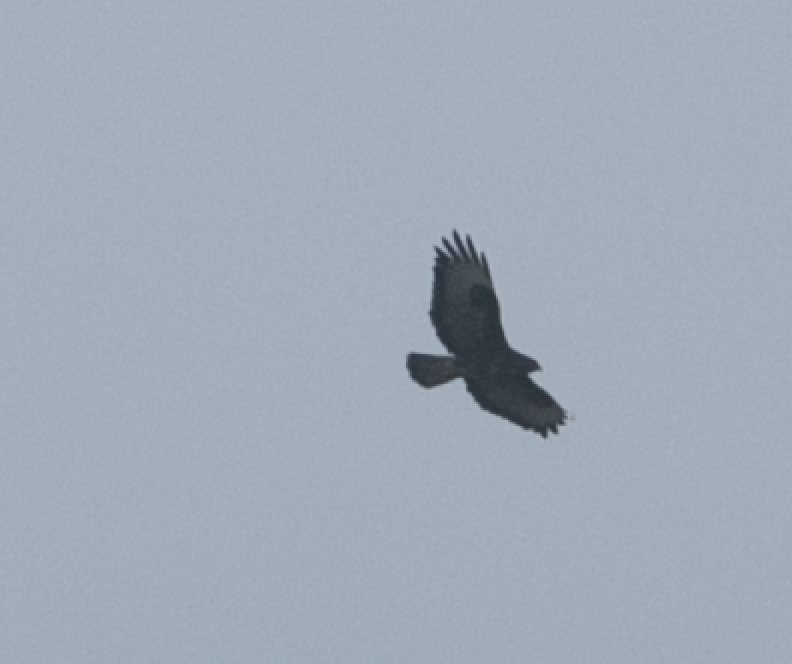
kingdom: Animalia
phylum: Chordata
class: Aves
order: Accipitriformes
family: Accipitridae
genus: Buteo
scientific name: Buteo buteo
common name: Common buzzard
